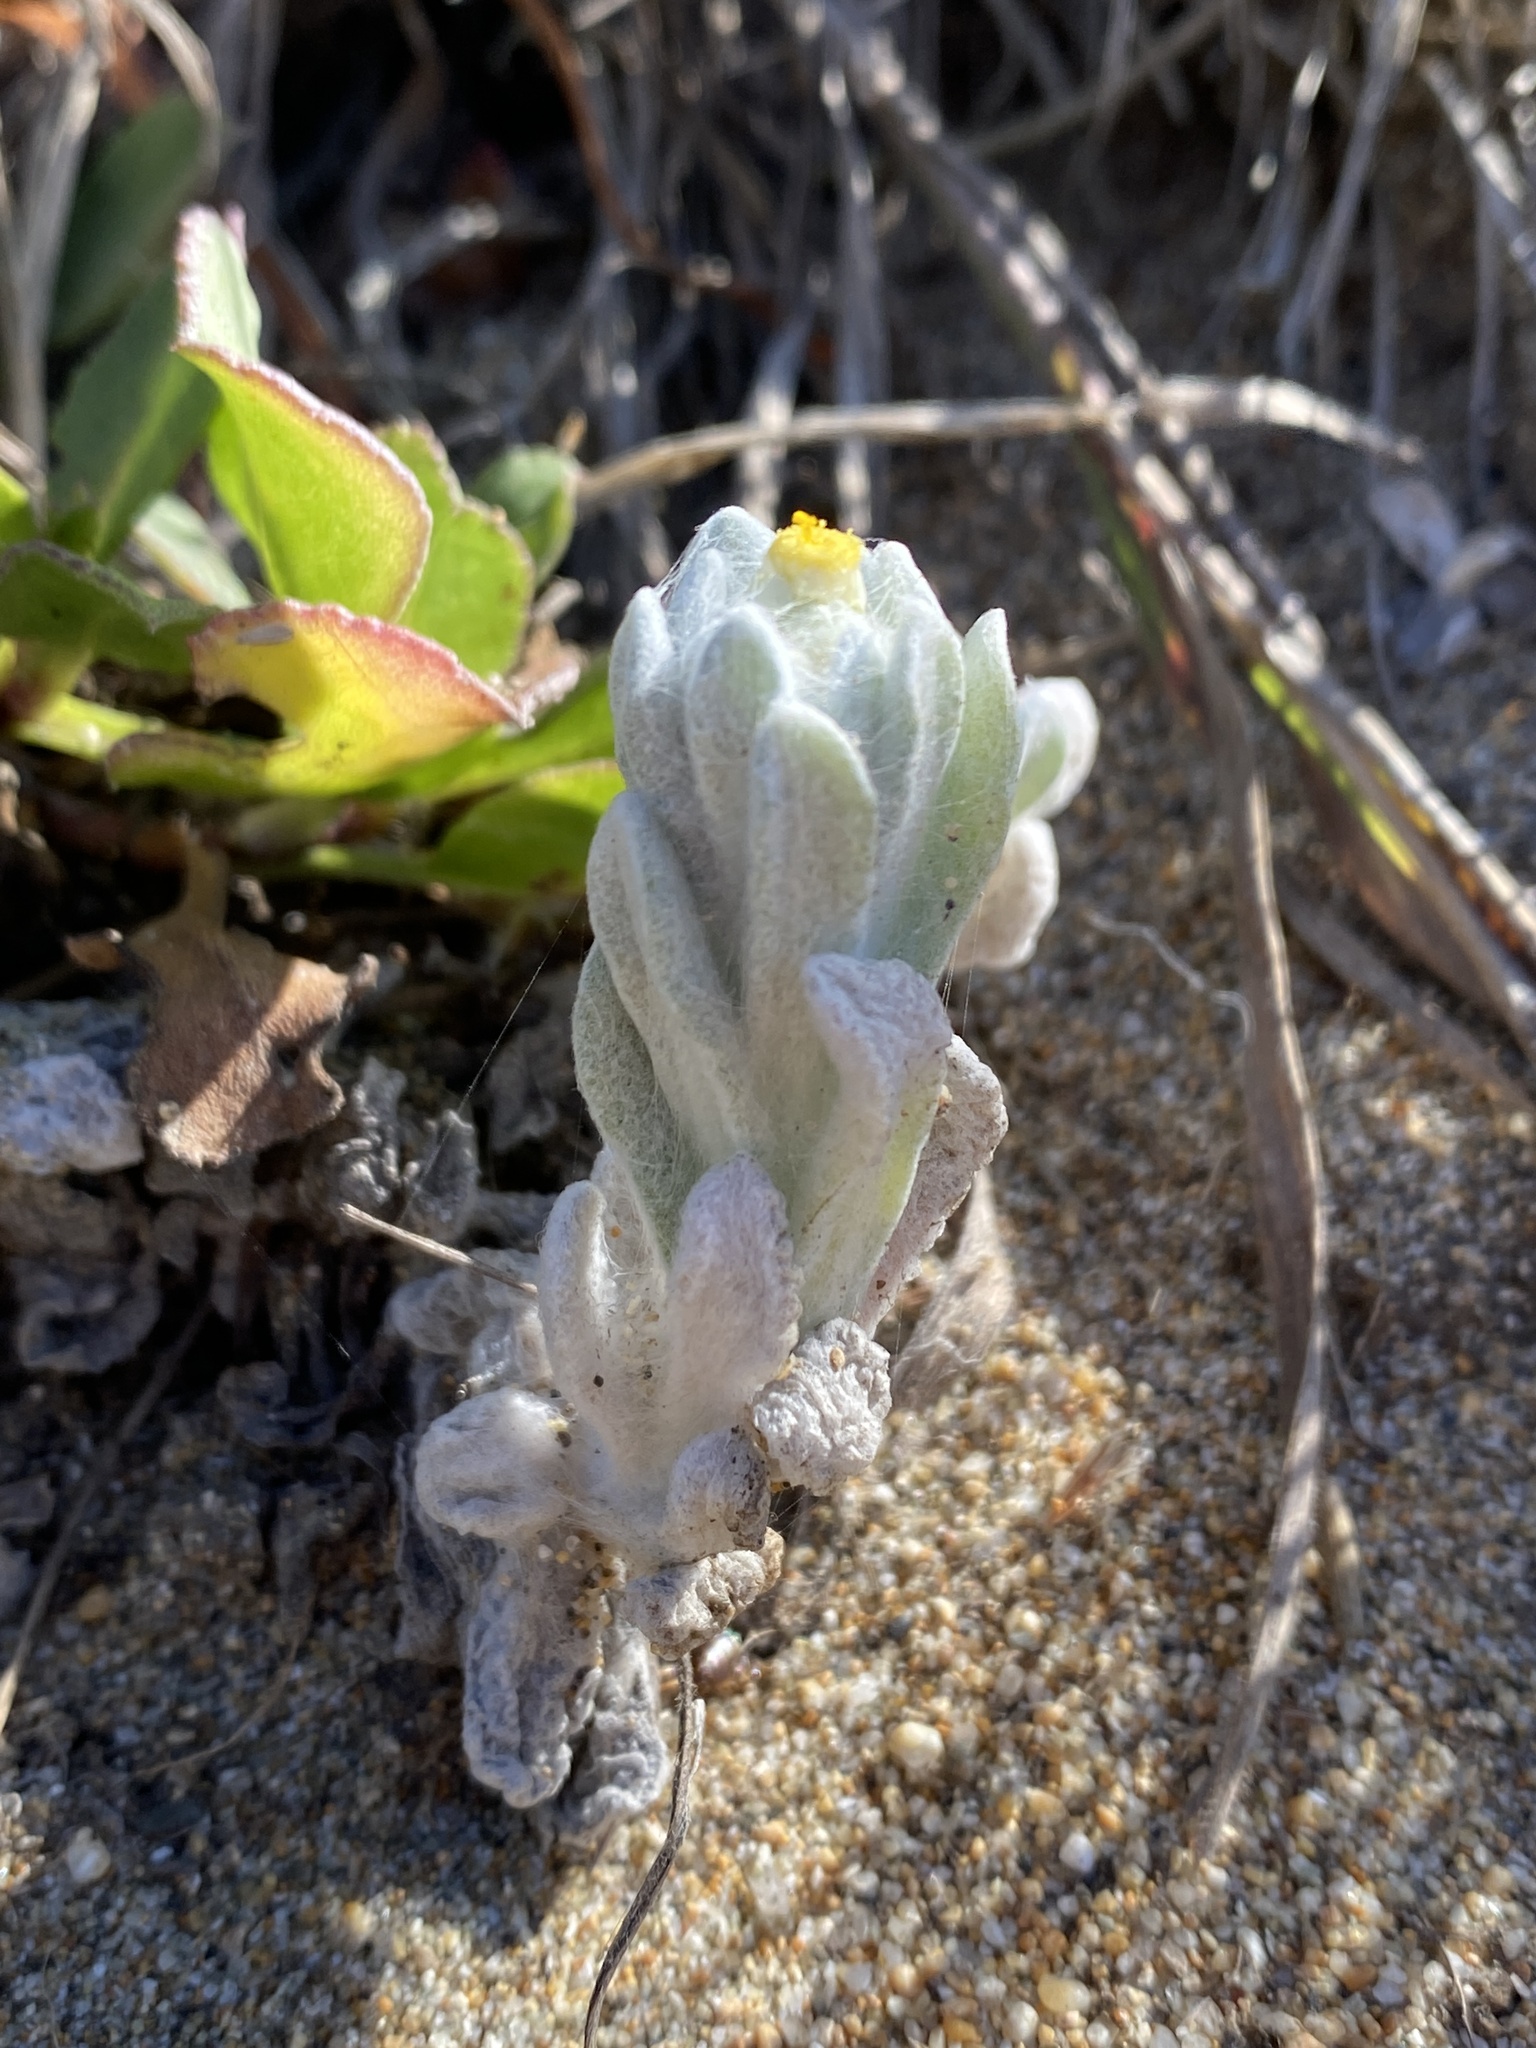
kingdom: Plantae
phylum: Tracheophyta
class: Magnoliopsida
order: Asterales
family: Asteraceae
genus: Pseudognaphalium
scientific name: Pseudognaphalium stramineum
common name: Cotton-batting-plant
